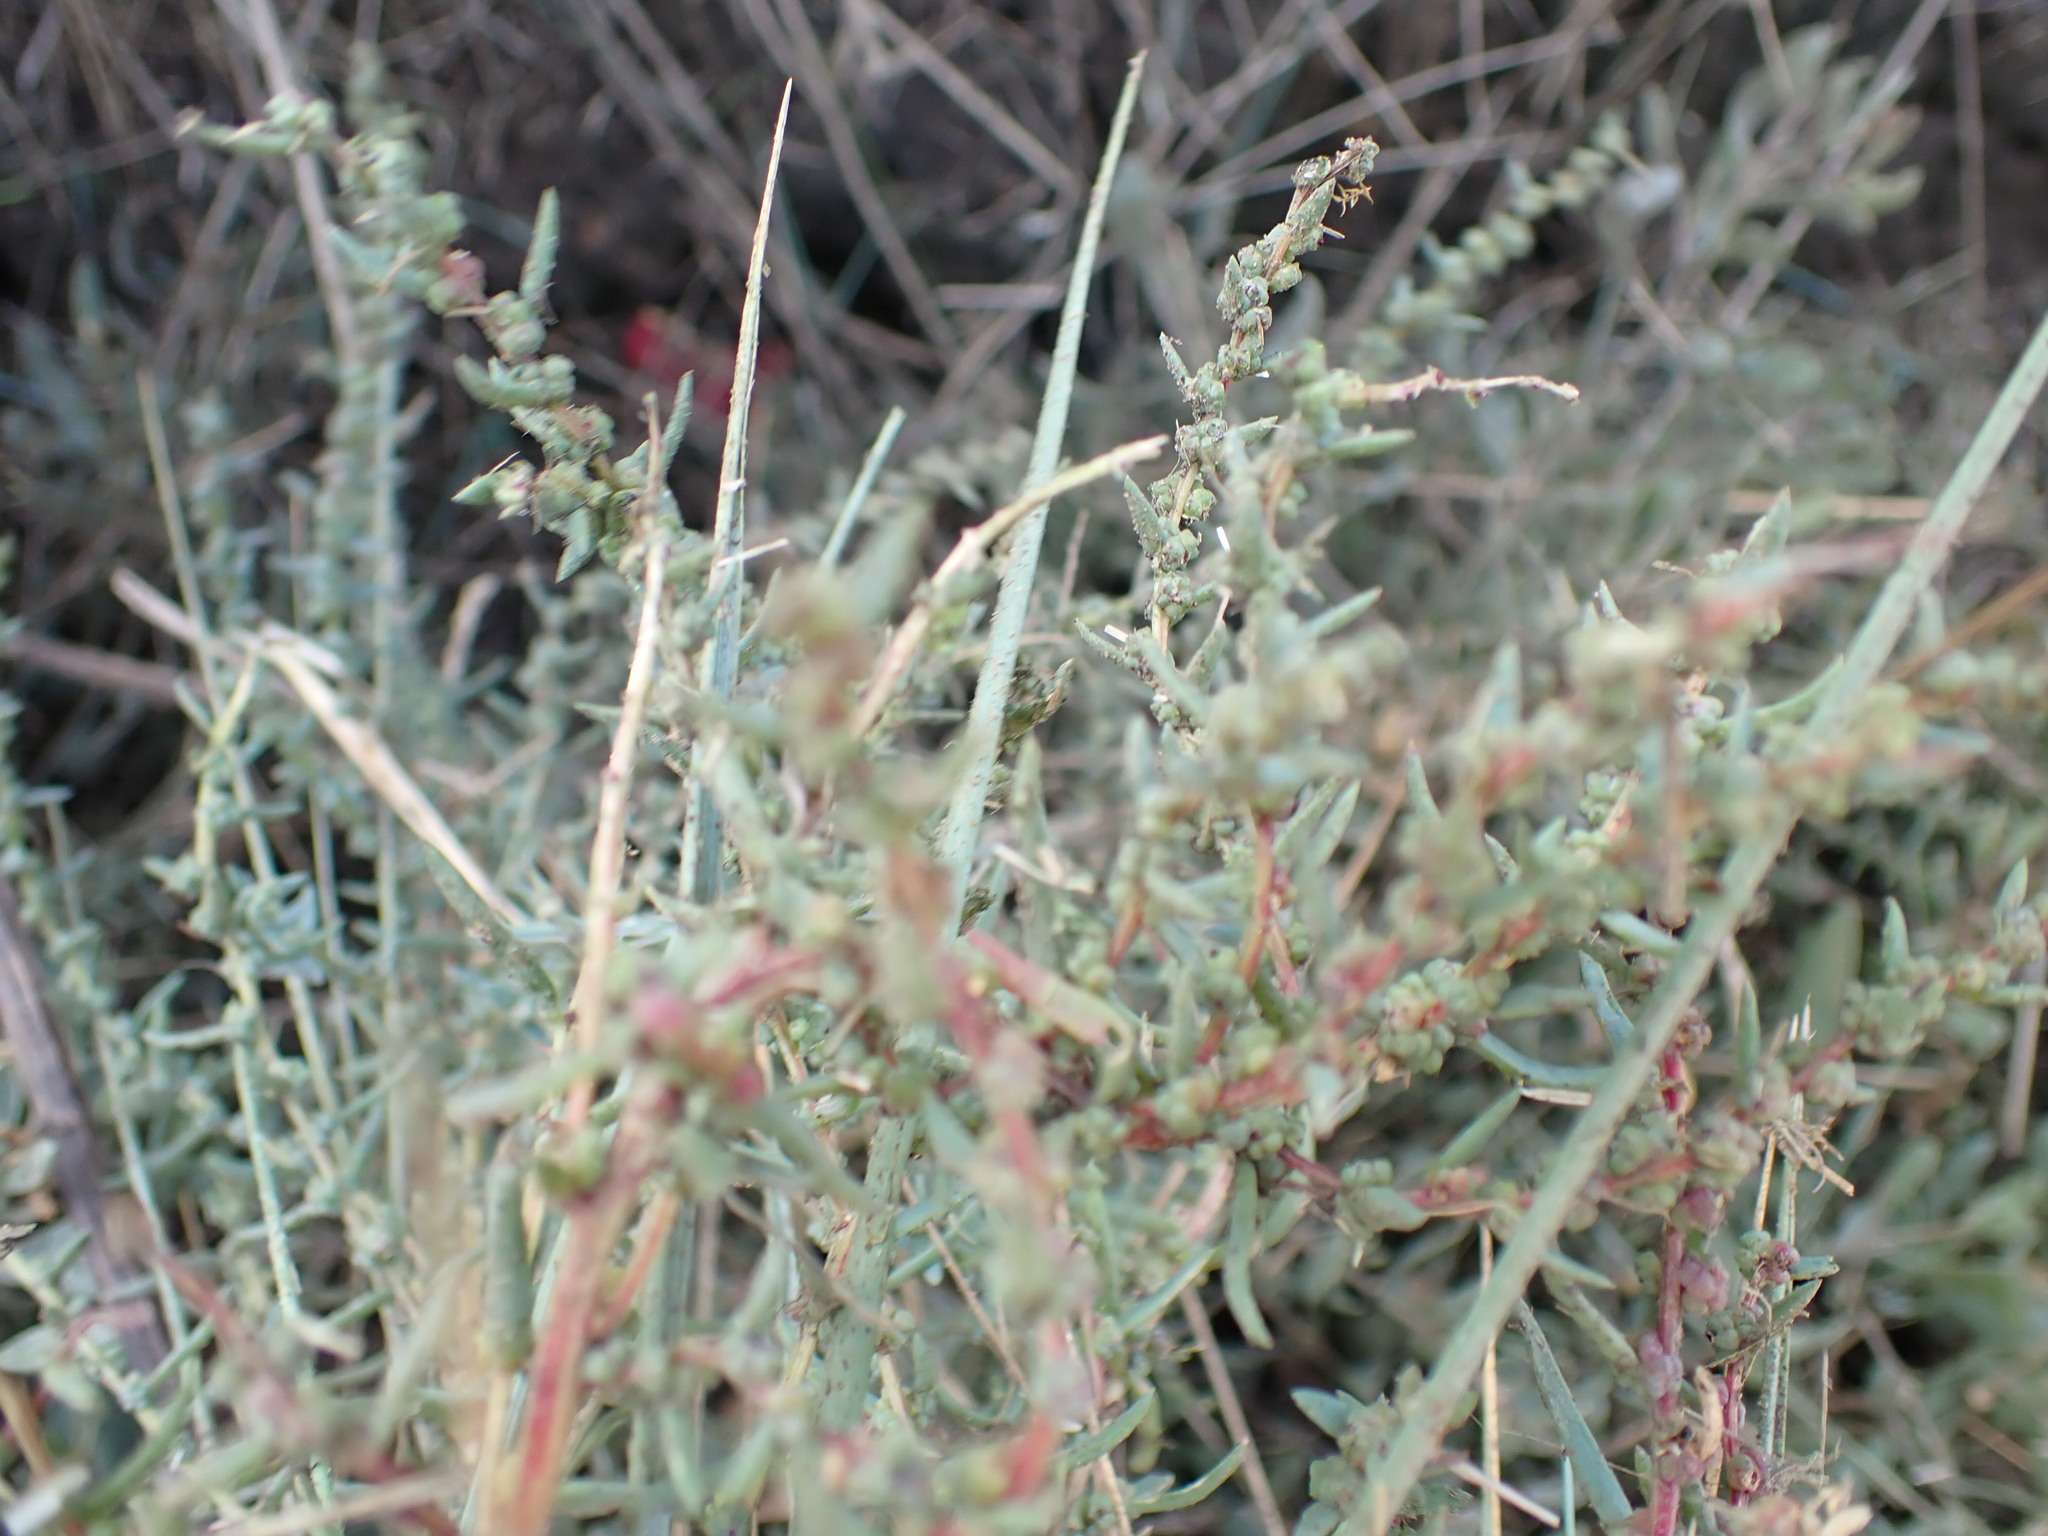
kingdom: Plantae
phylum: Tracheophyta
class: Magnoliopsida
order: Caryophyllales
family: Amaranthaceae
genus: Suaeda
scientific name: Suaeda maritima
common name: Annual sea-blite
